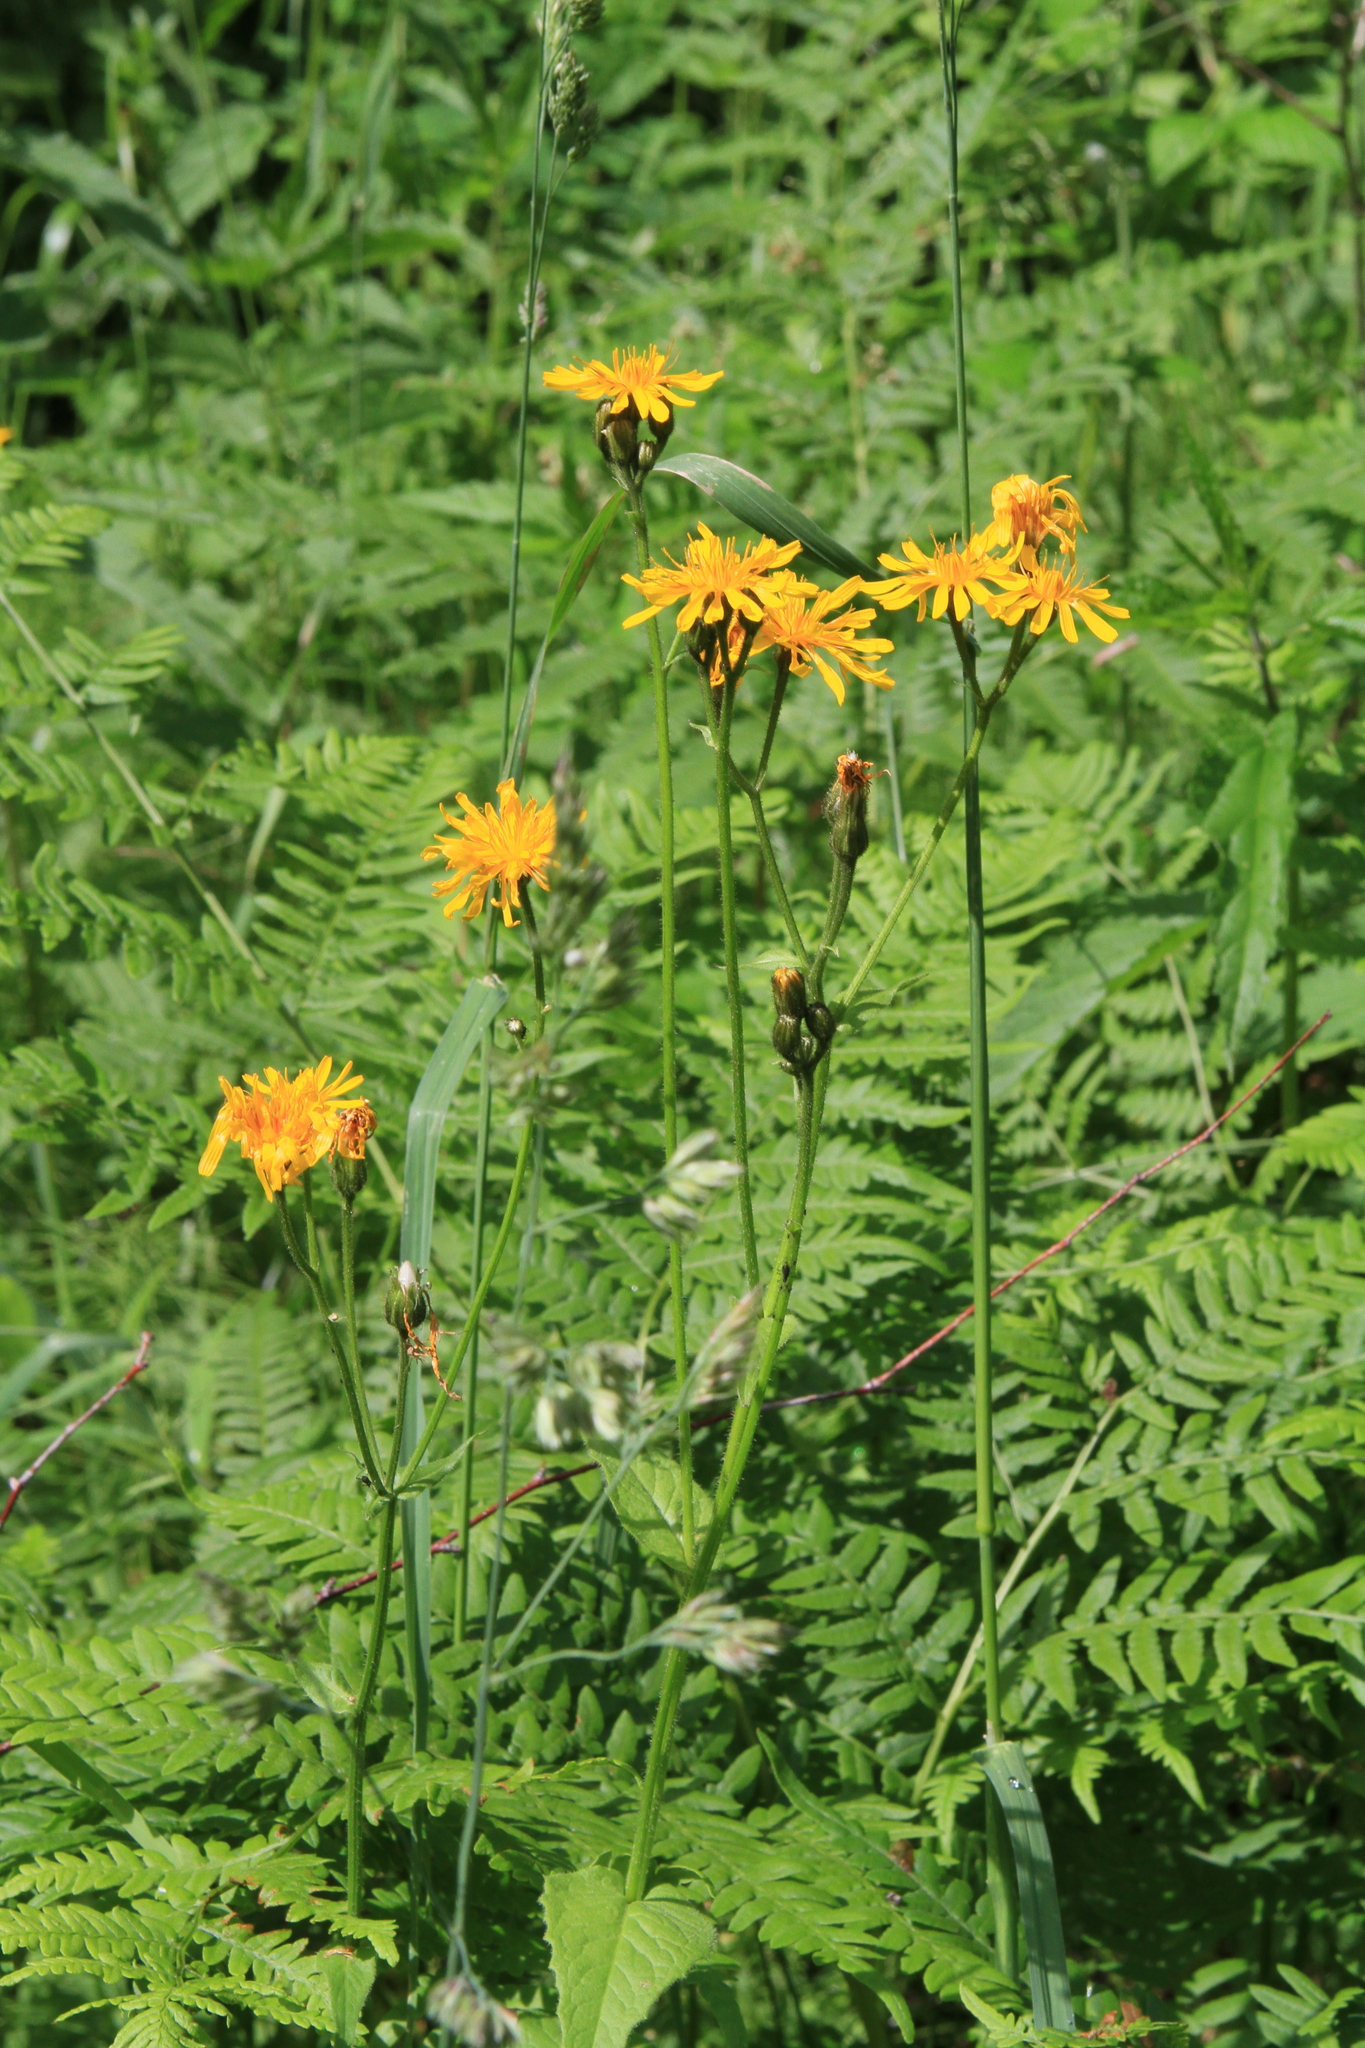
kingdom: Plantae
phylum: Tracheophyta
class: Magnoliopsida
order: Asterales
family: Asteraceae
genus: Crepis
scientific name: Crepis lyrata
